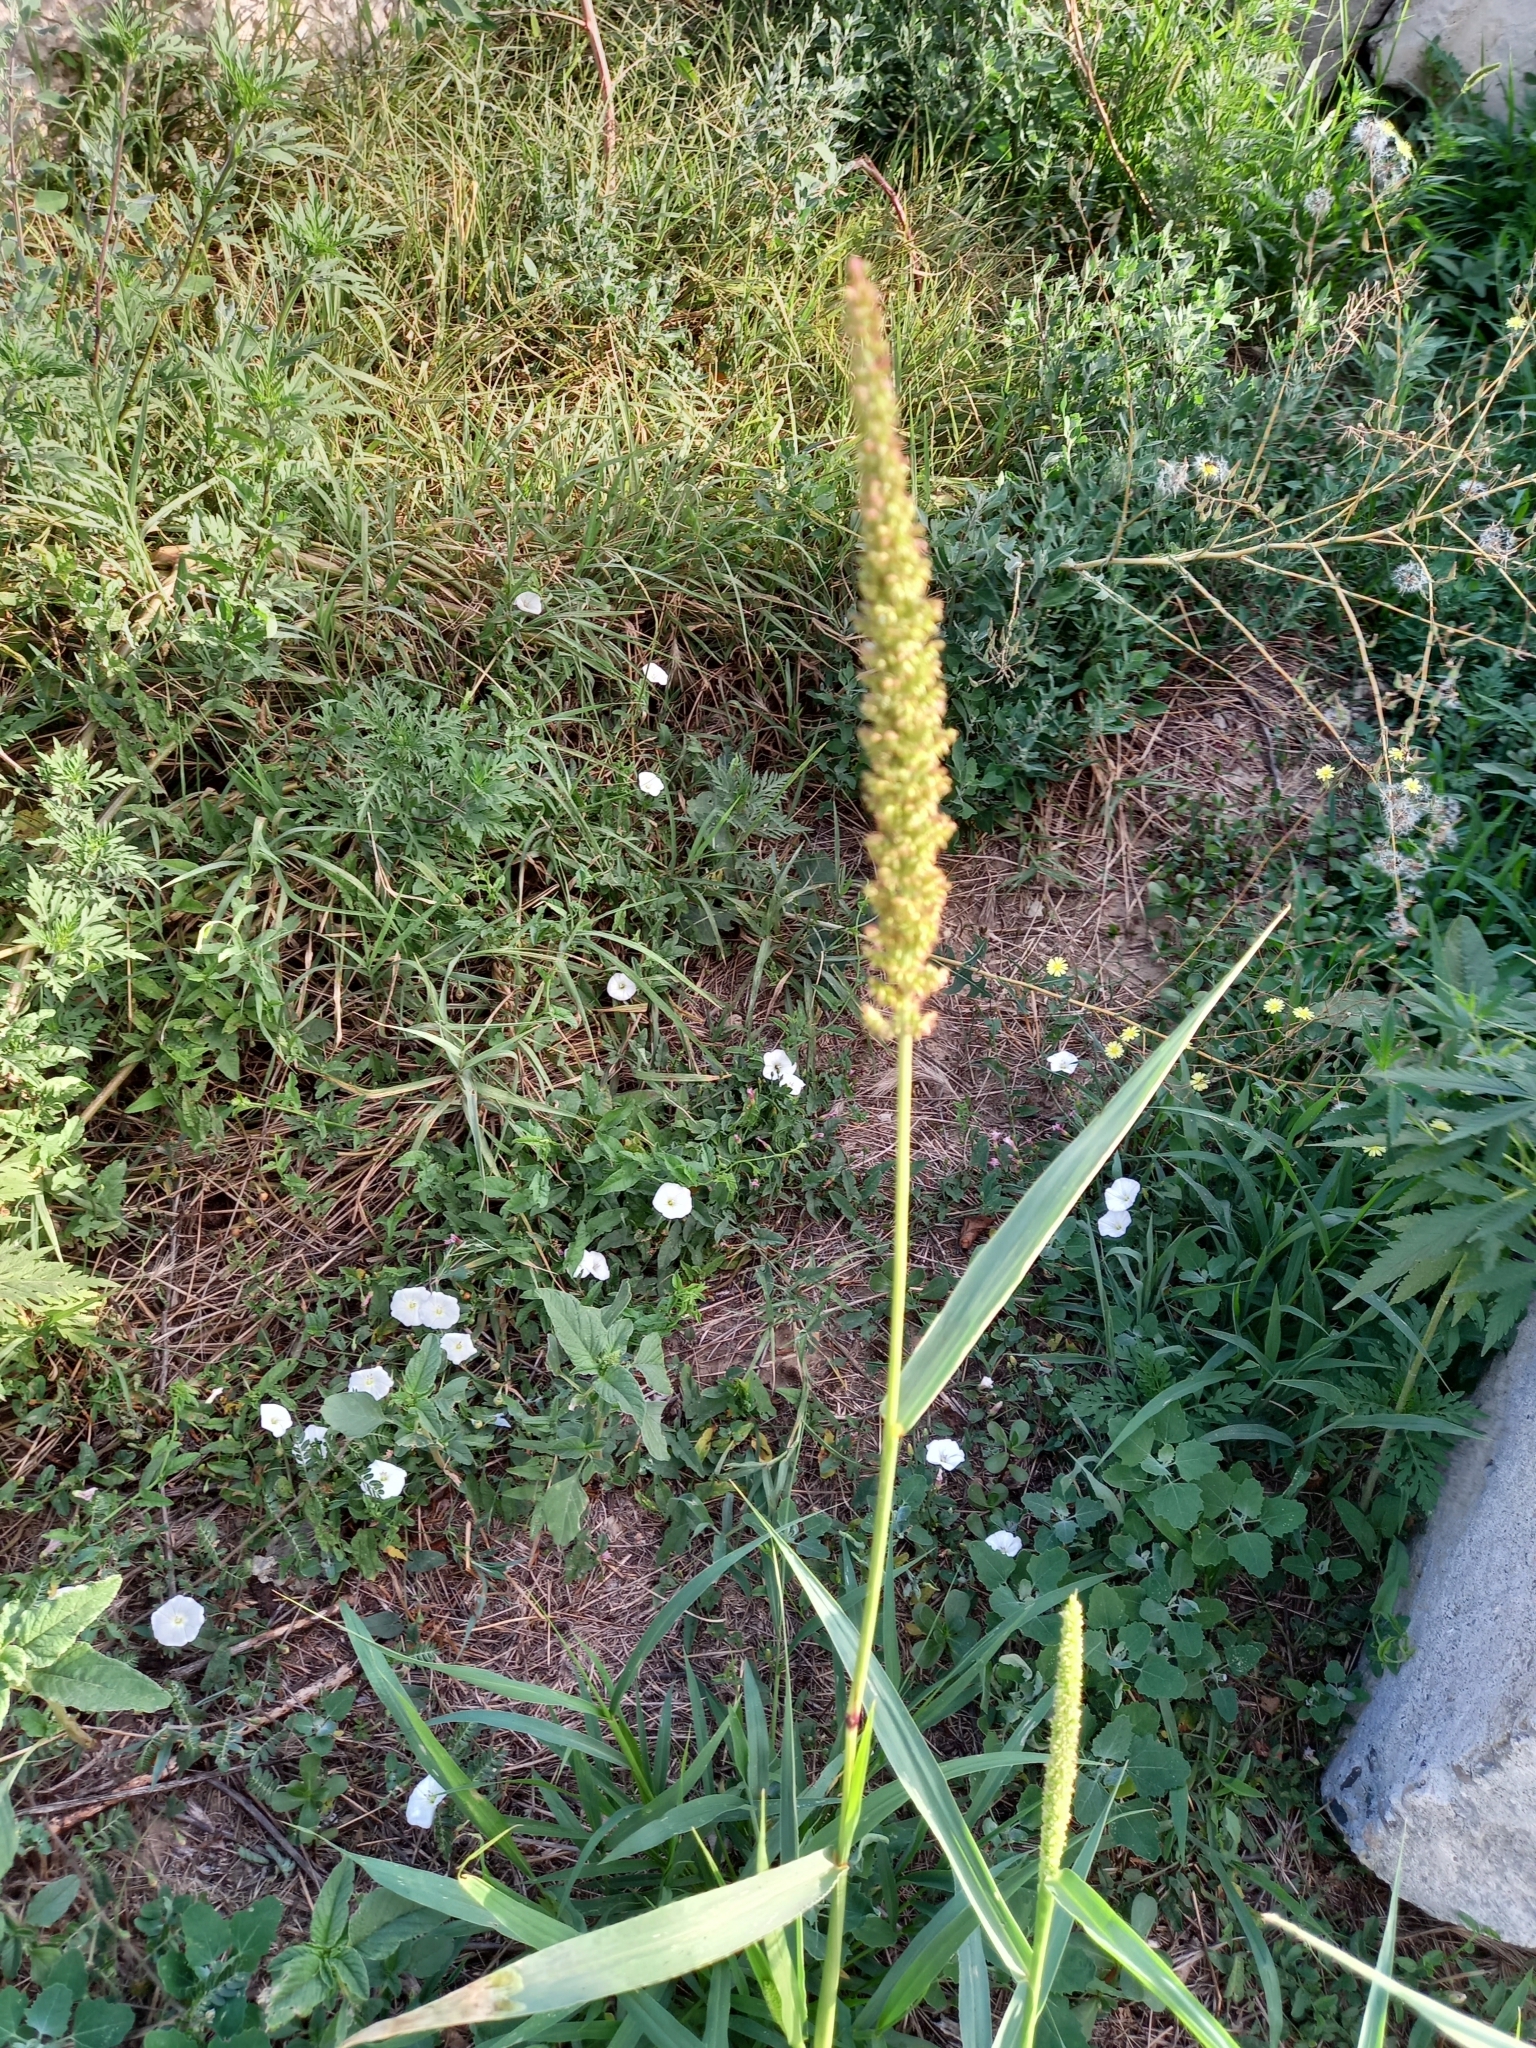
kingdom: Plantae
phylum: Tracheophyta
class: Liliopsida
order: Poales
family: Poaceae
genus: Setaria
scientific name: Setaria verticillata
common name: Hooked bristlegrass
